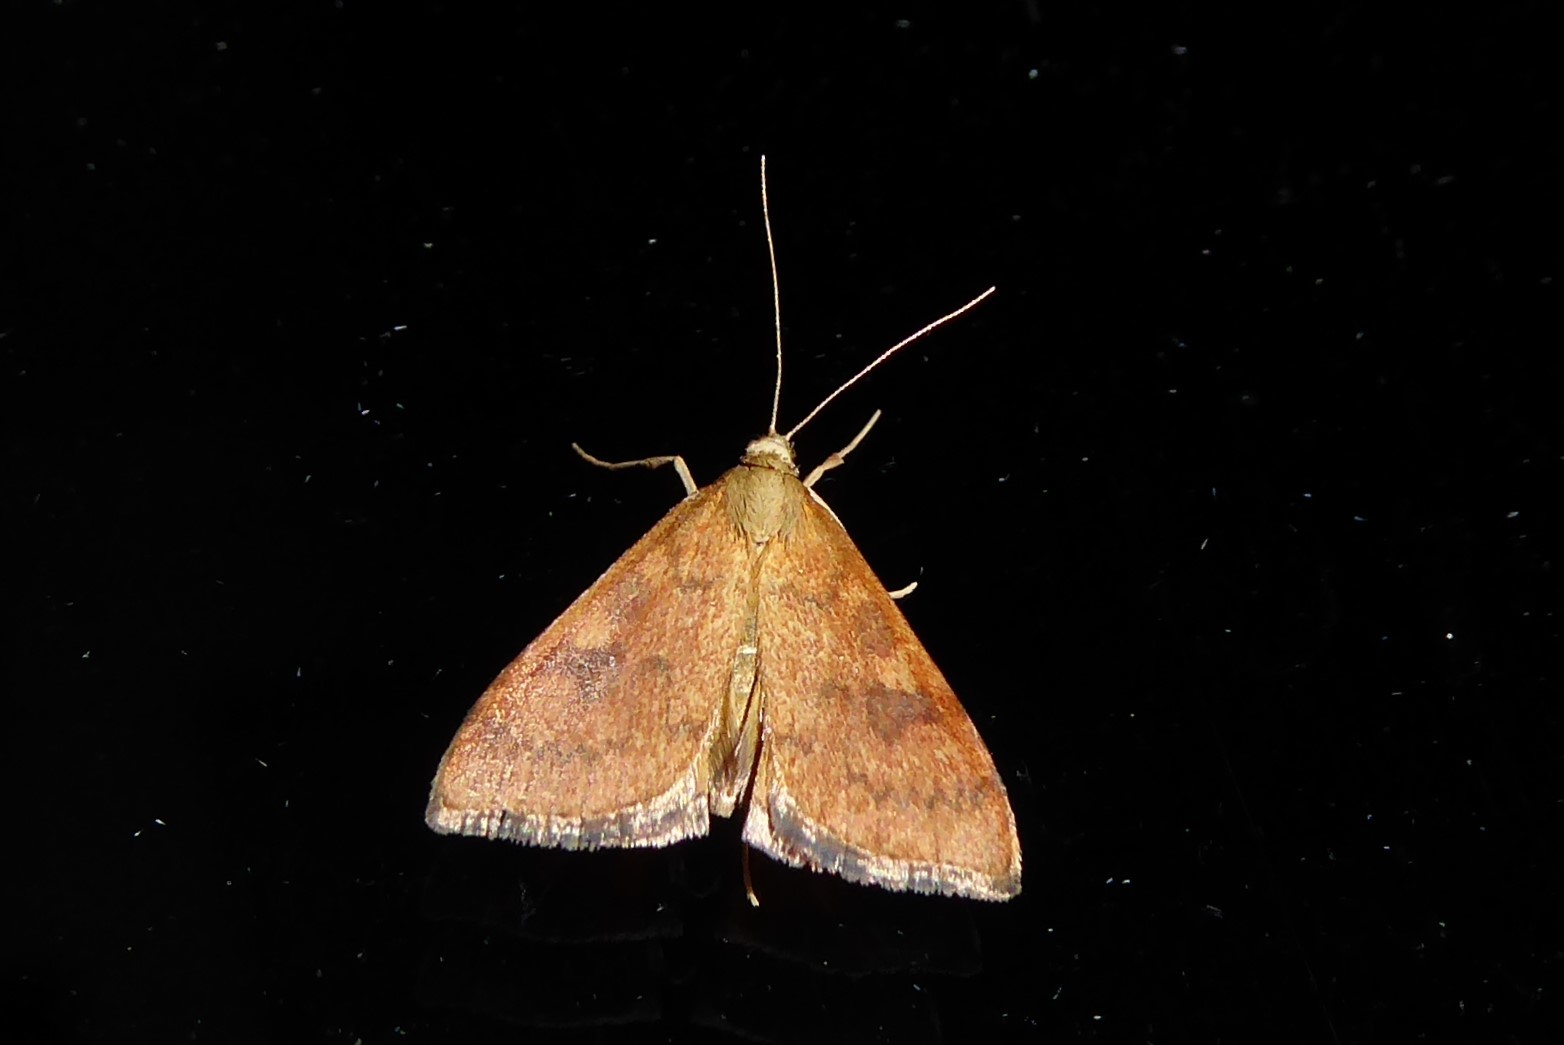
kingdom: Animalia
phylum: Arthropoda
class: Insecta
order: Lepidoptera
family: Crambidae
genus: Udea
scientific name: Udea Mnesictena flavidalis
